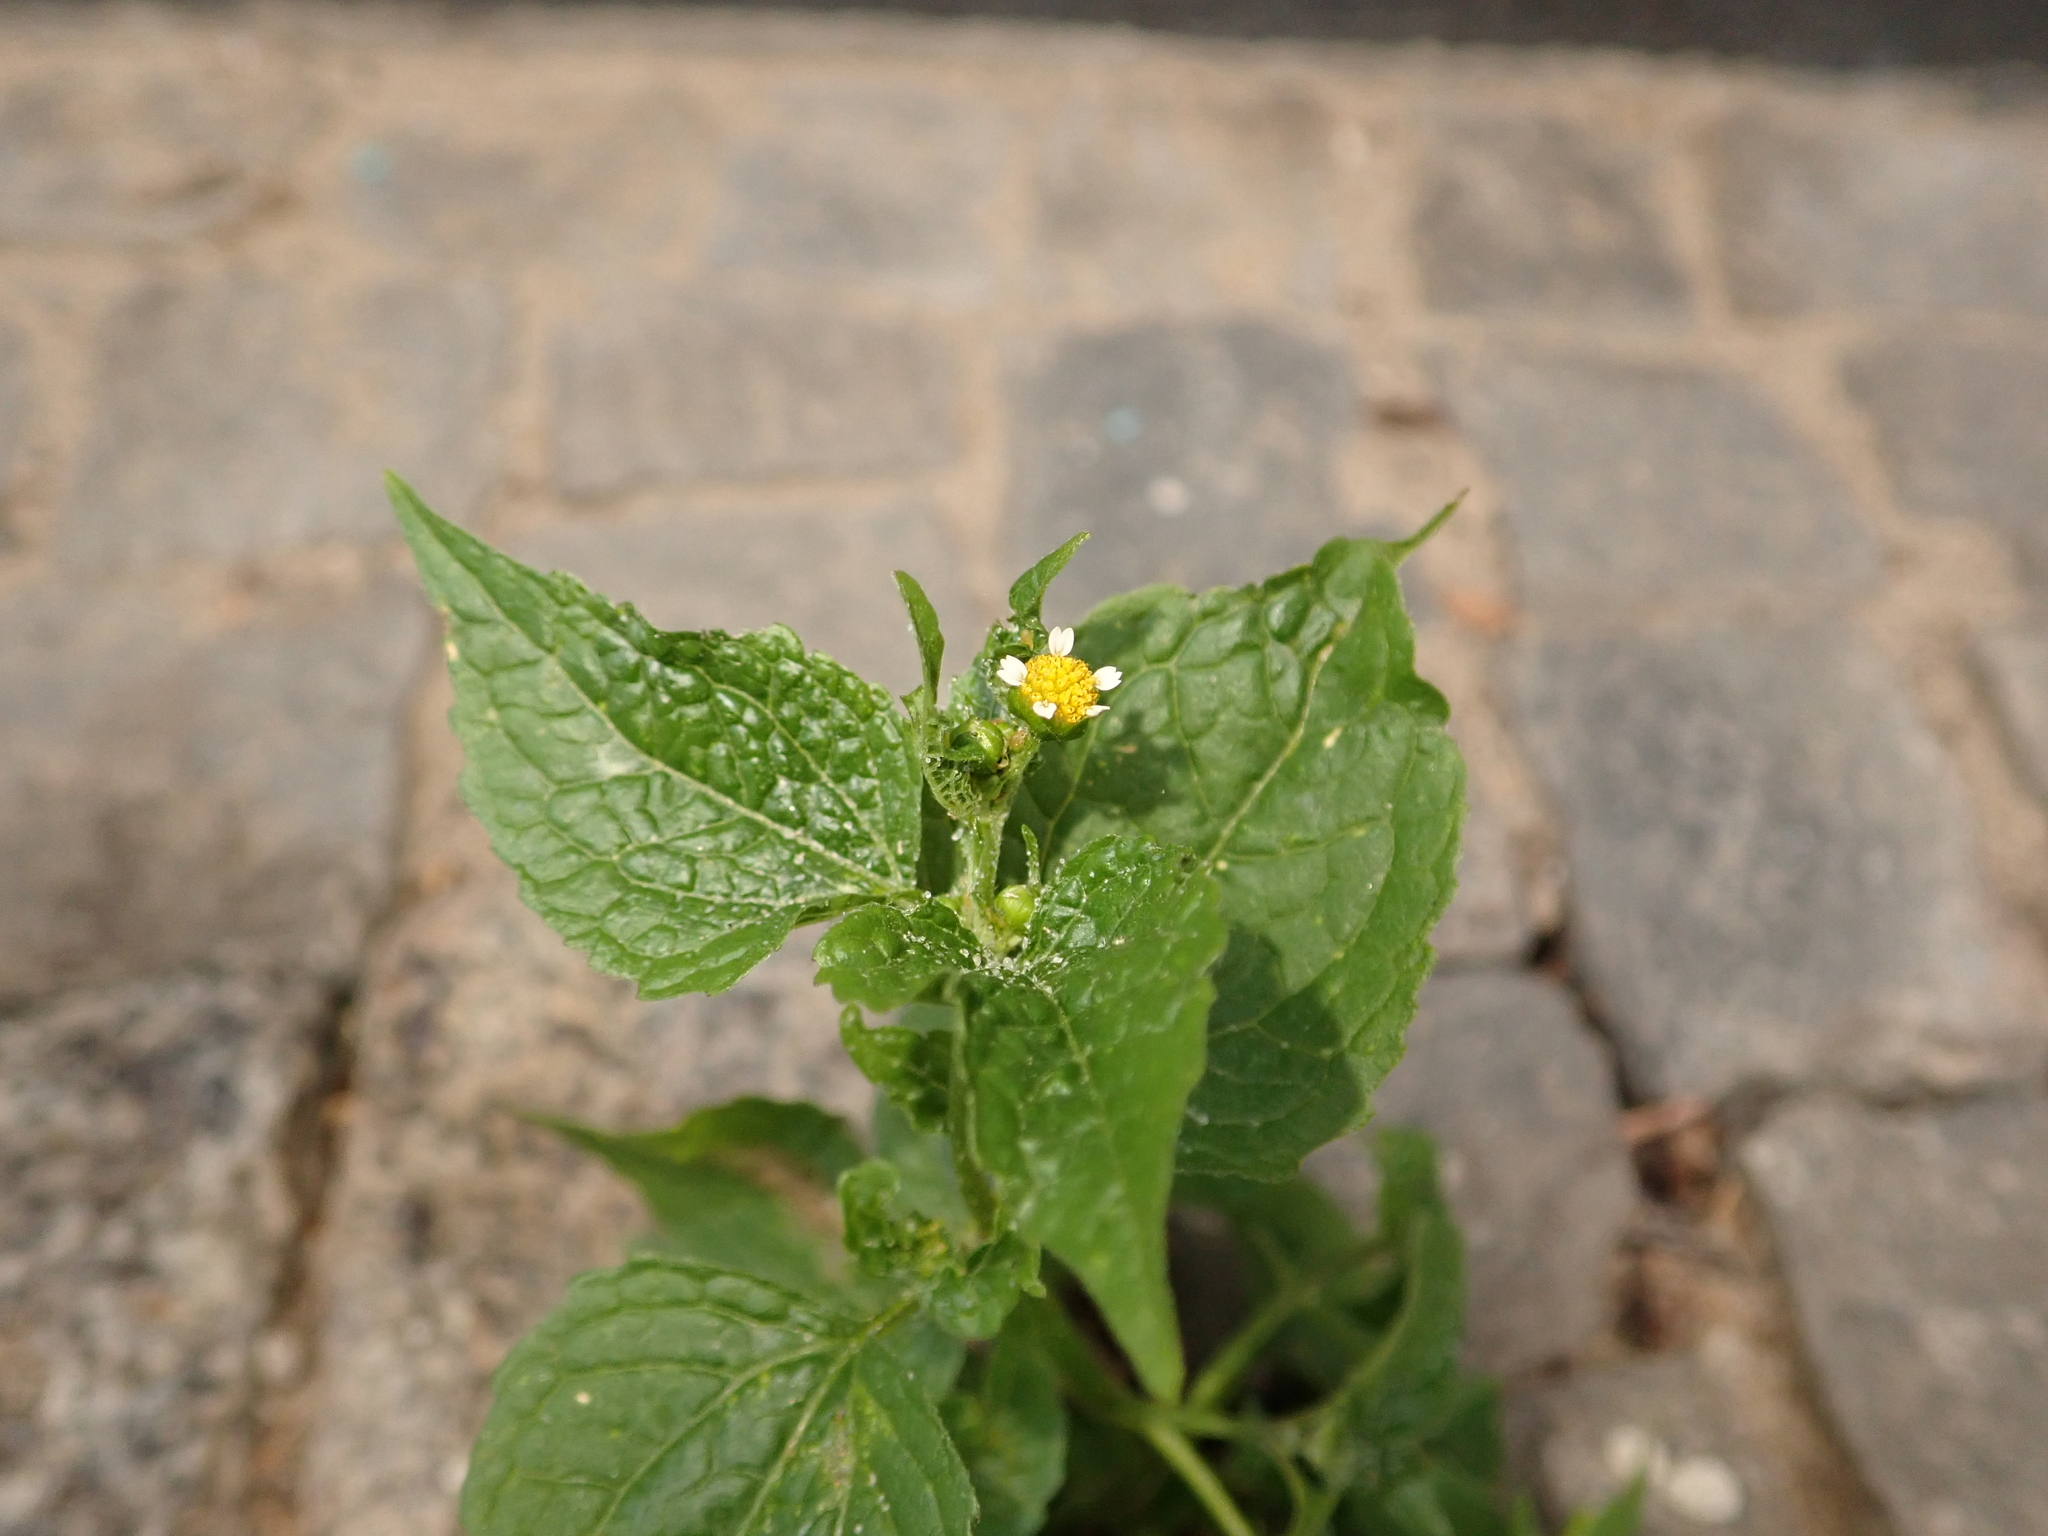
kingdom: Plantae
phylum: Tracheophyta
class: Magnoliopsida
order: Asterales
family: Asteraceae
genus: Galinsoga
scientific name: Galinsoga parviflora
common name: Gallant soldier
